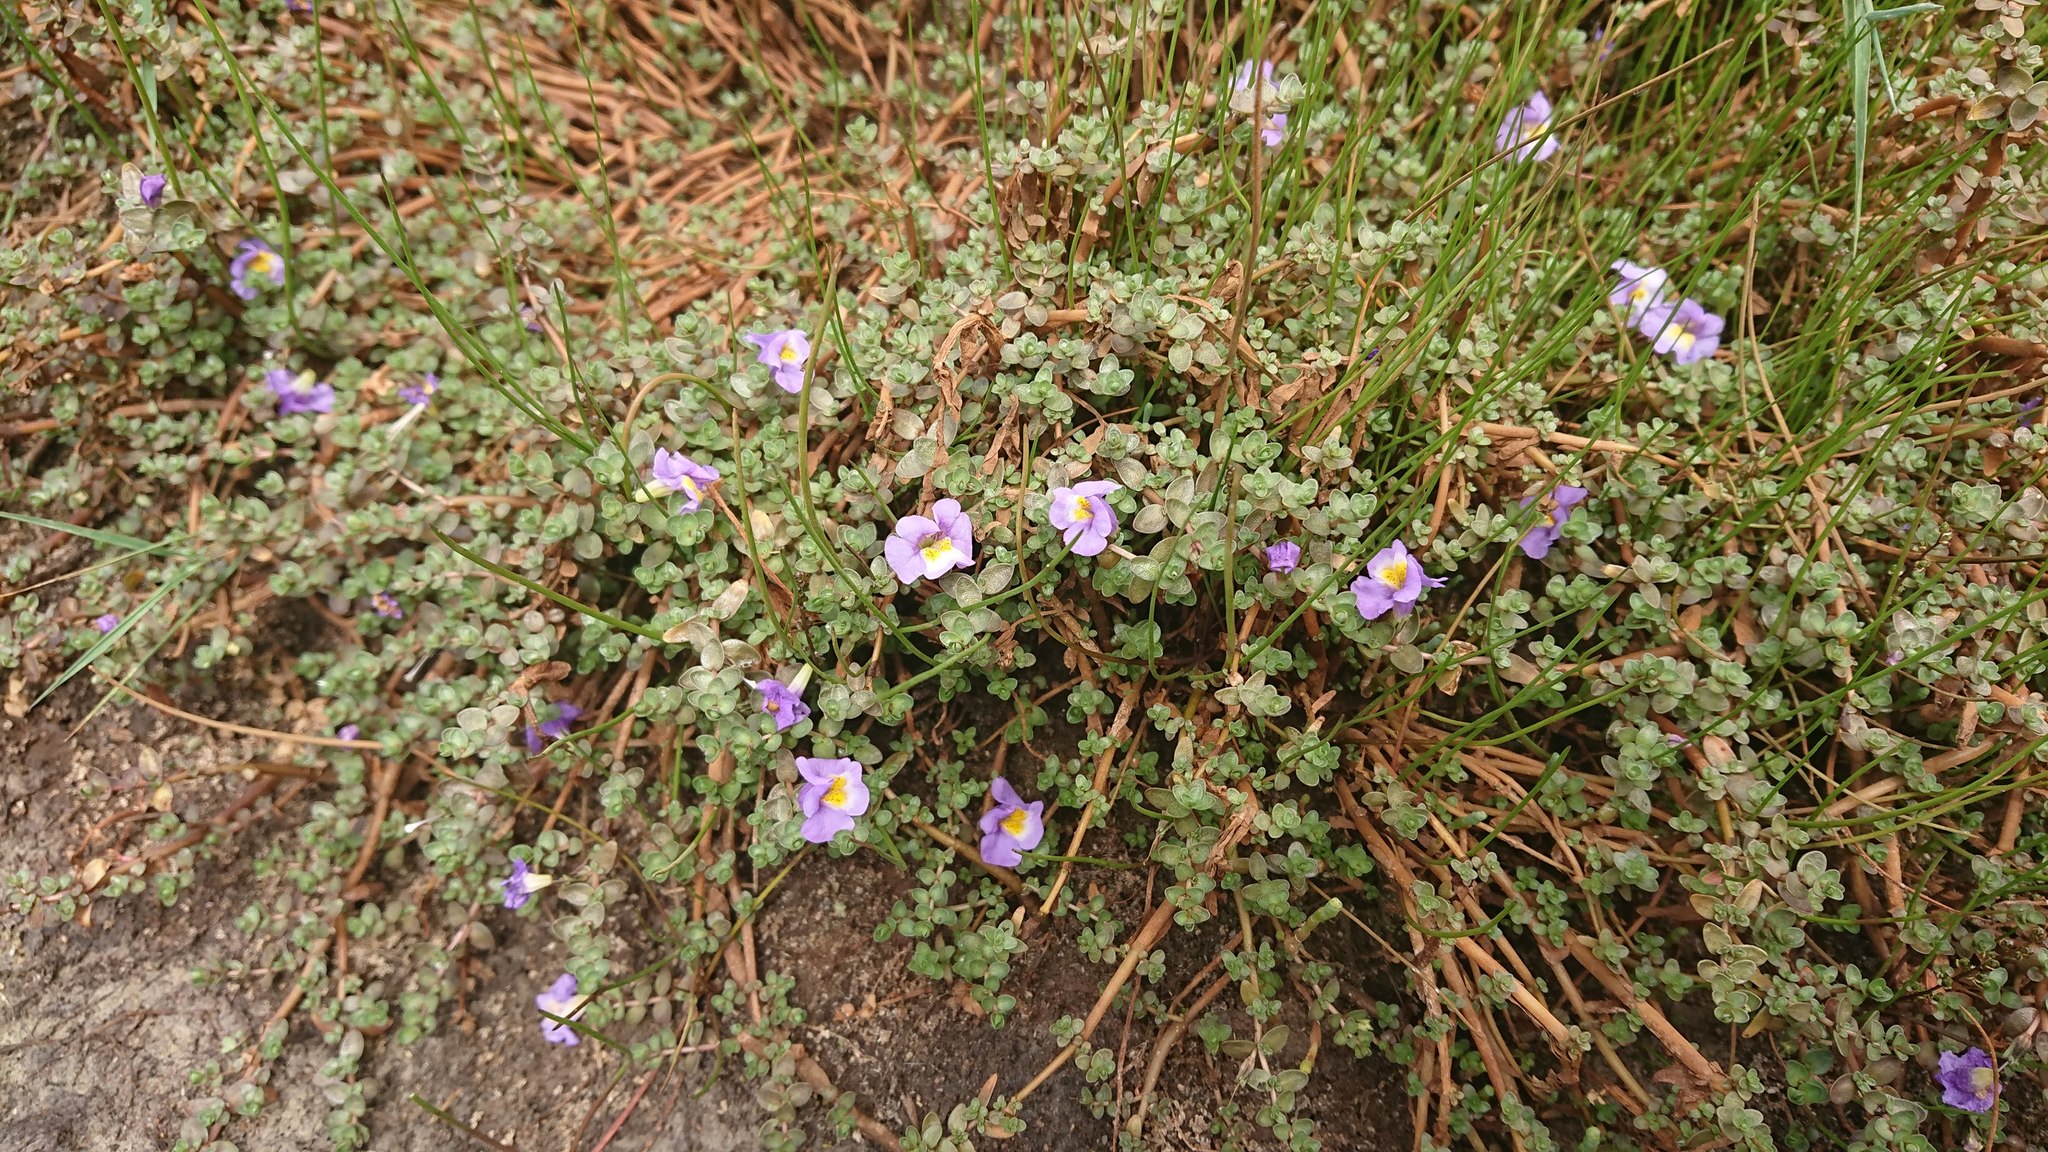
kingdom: Plantae
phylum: Tracheophyta
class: Magnoliopsida
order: Lamiales
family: Phrymaceae
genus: Thyridia
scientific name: Thyridia repens
